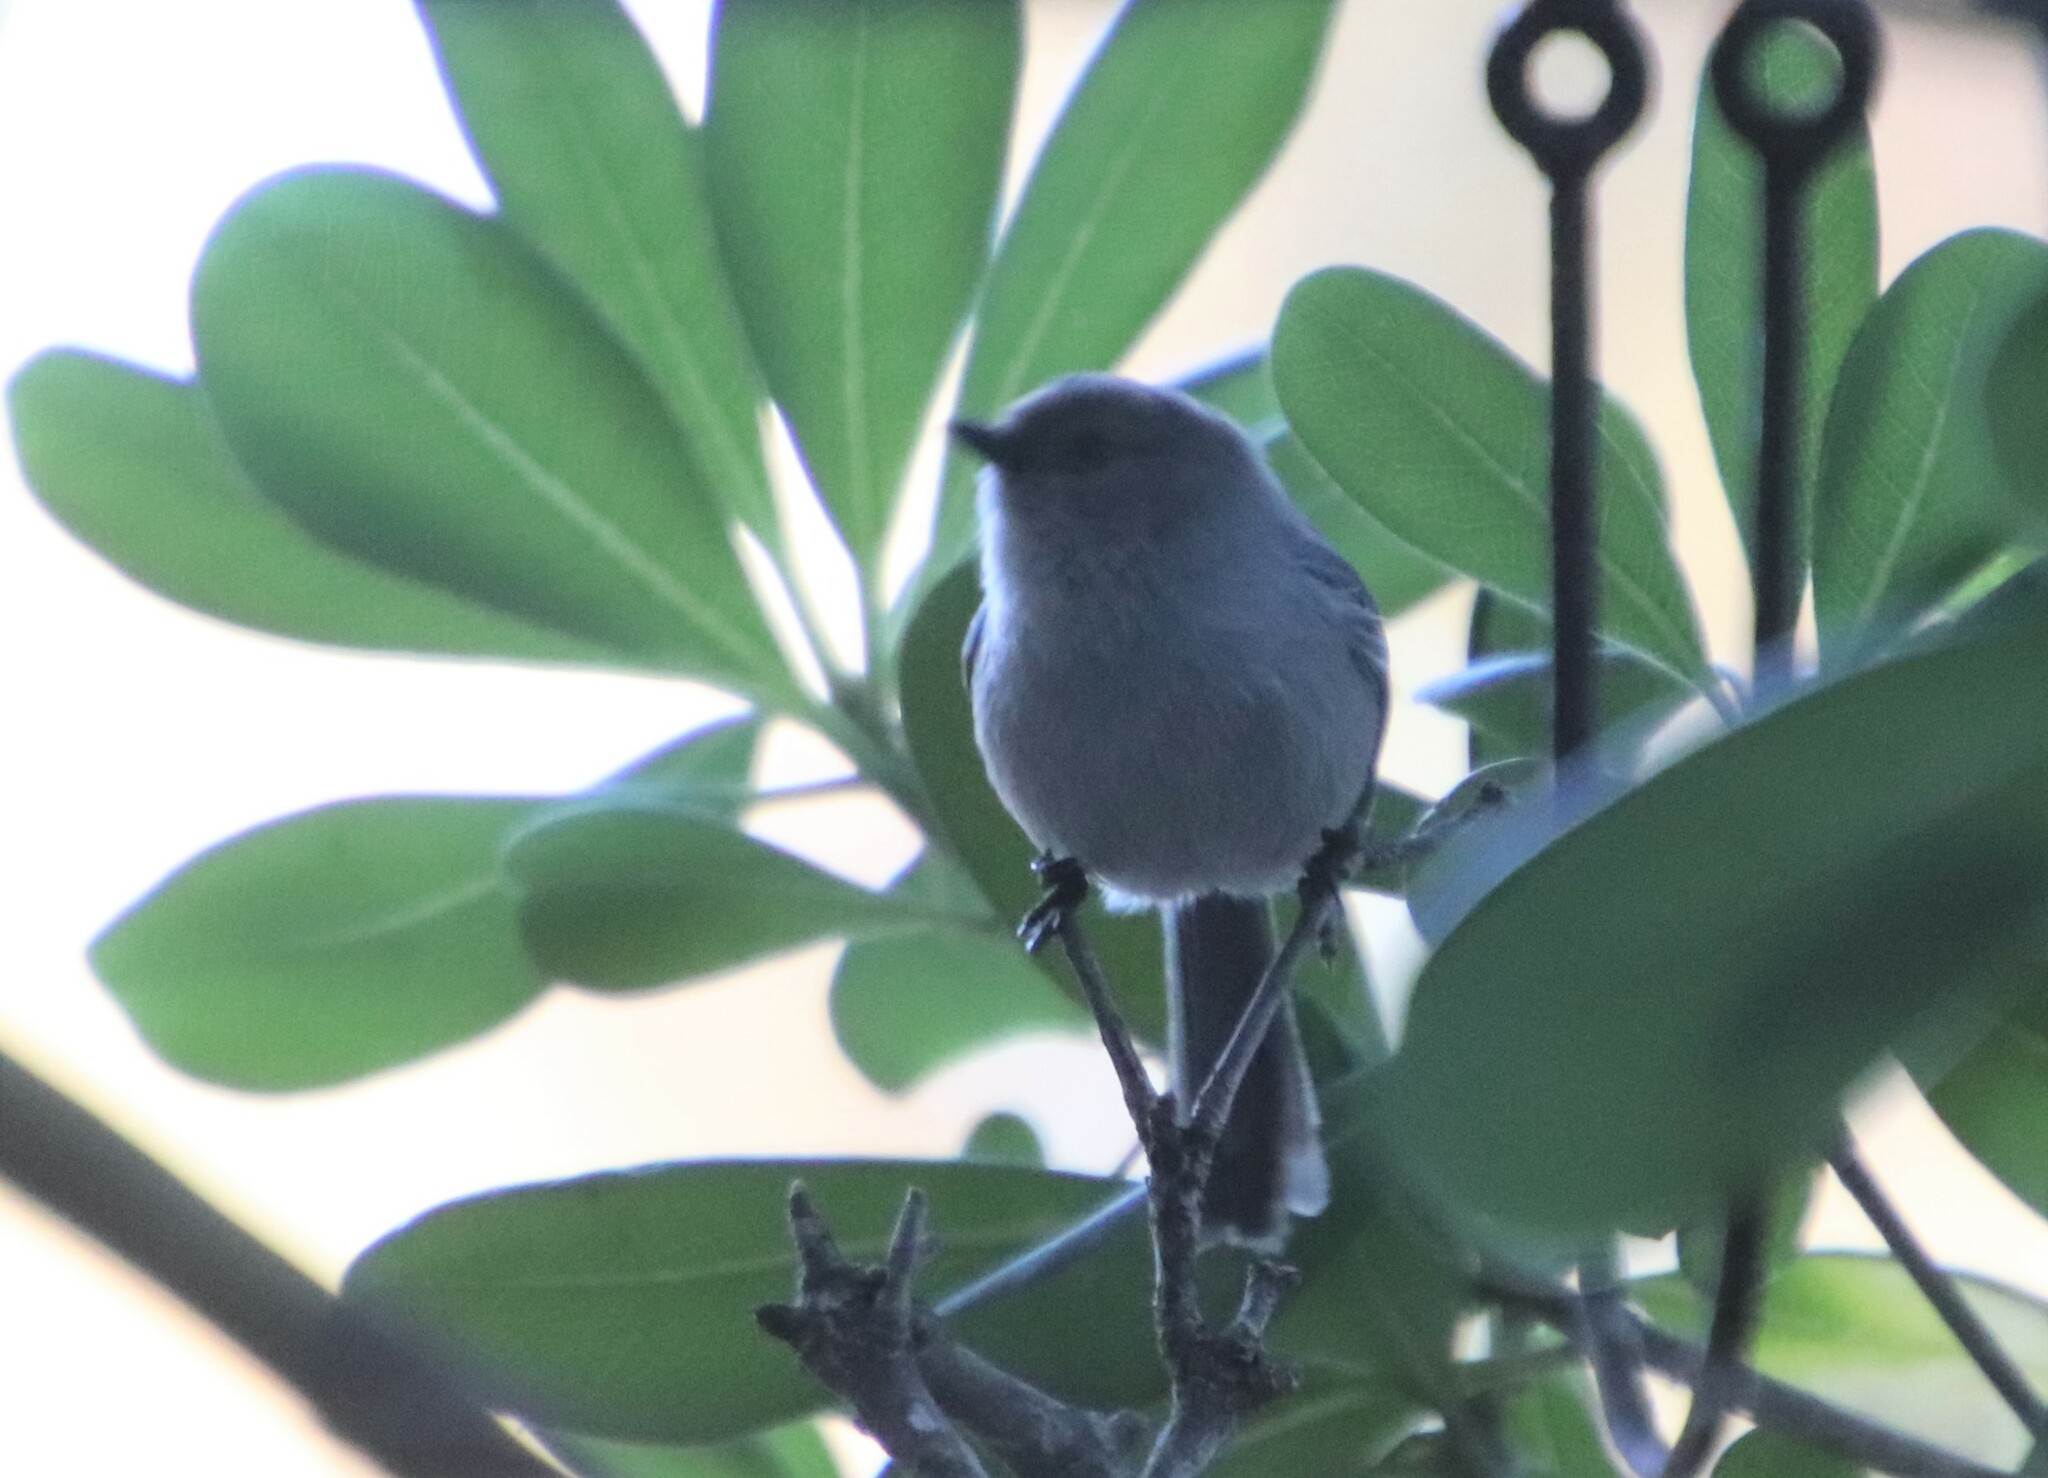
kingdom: Animalia
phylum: Chordata
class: Aves
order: Passeriformes
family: Aegithalidae
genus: Psaltriparus
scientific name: Psaltriparus minimus
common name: American bushtit
